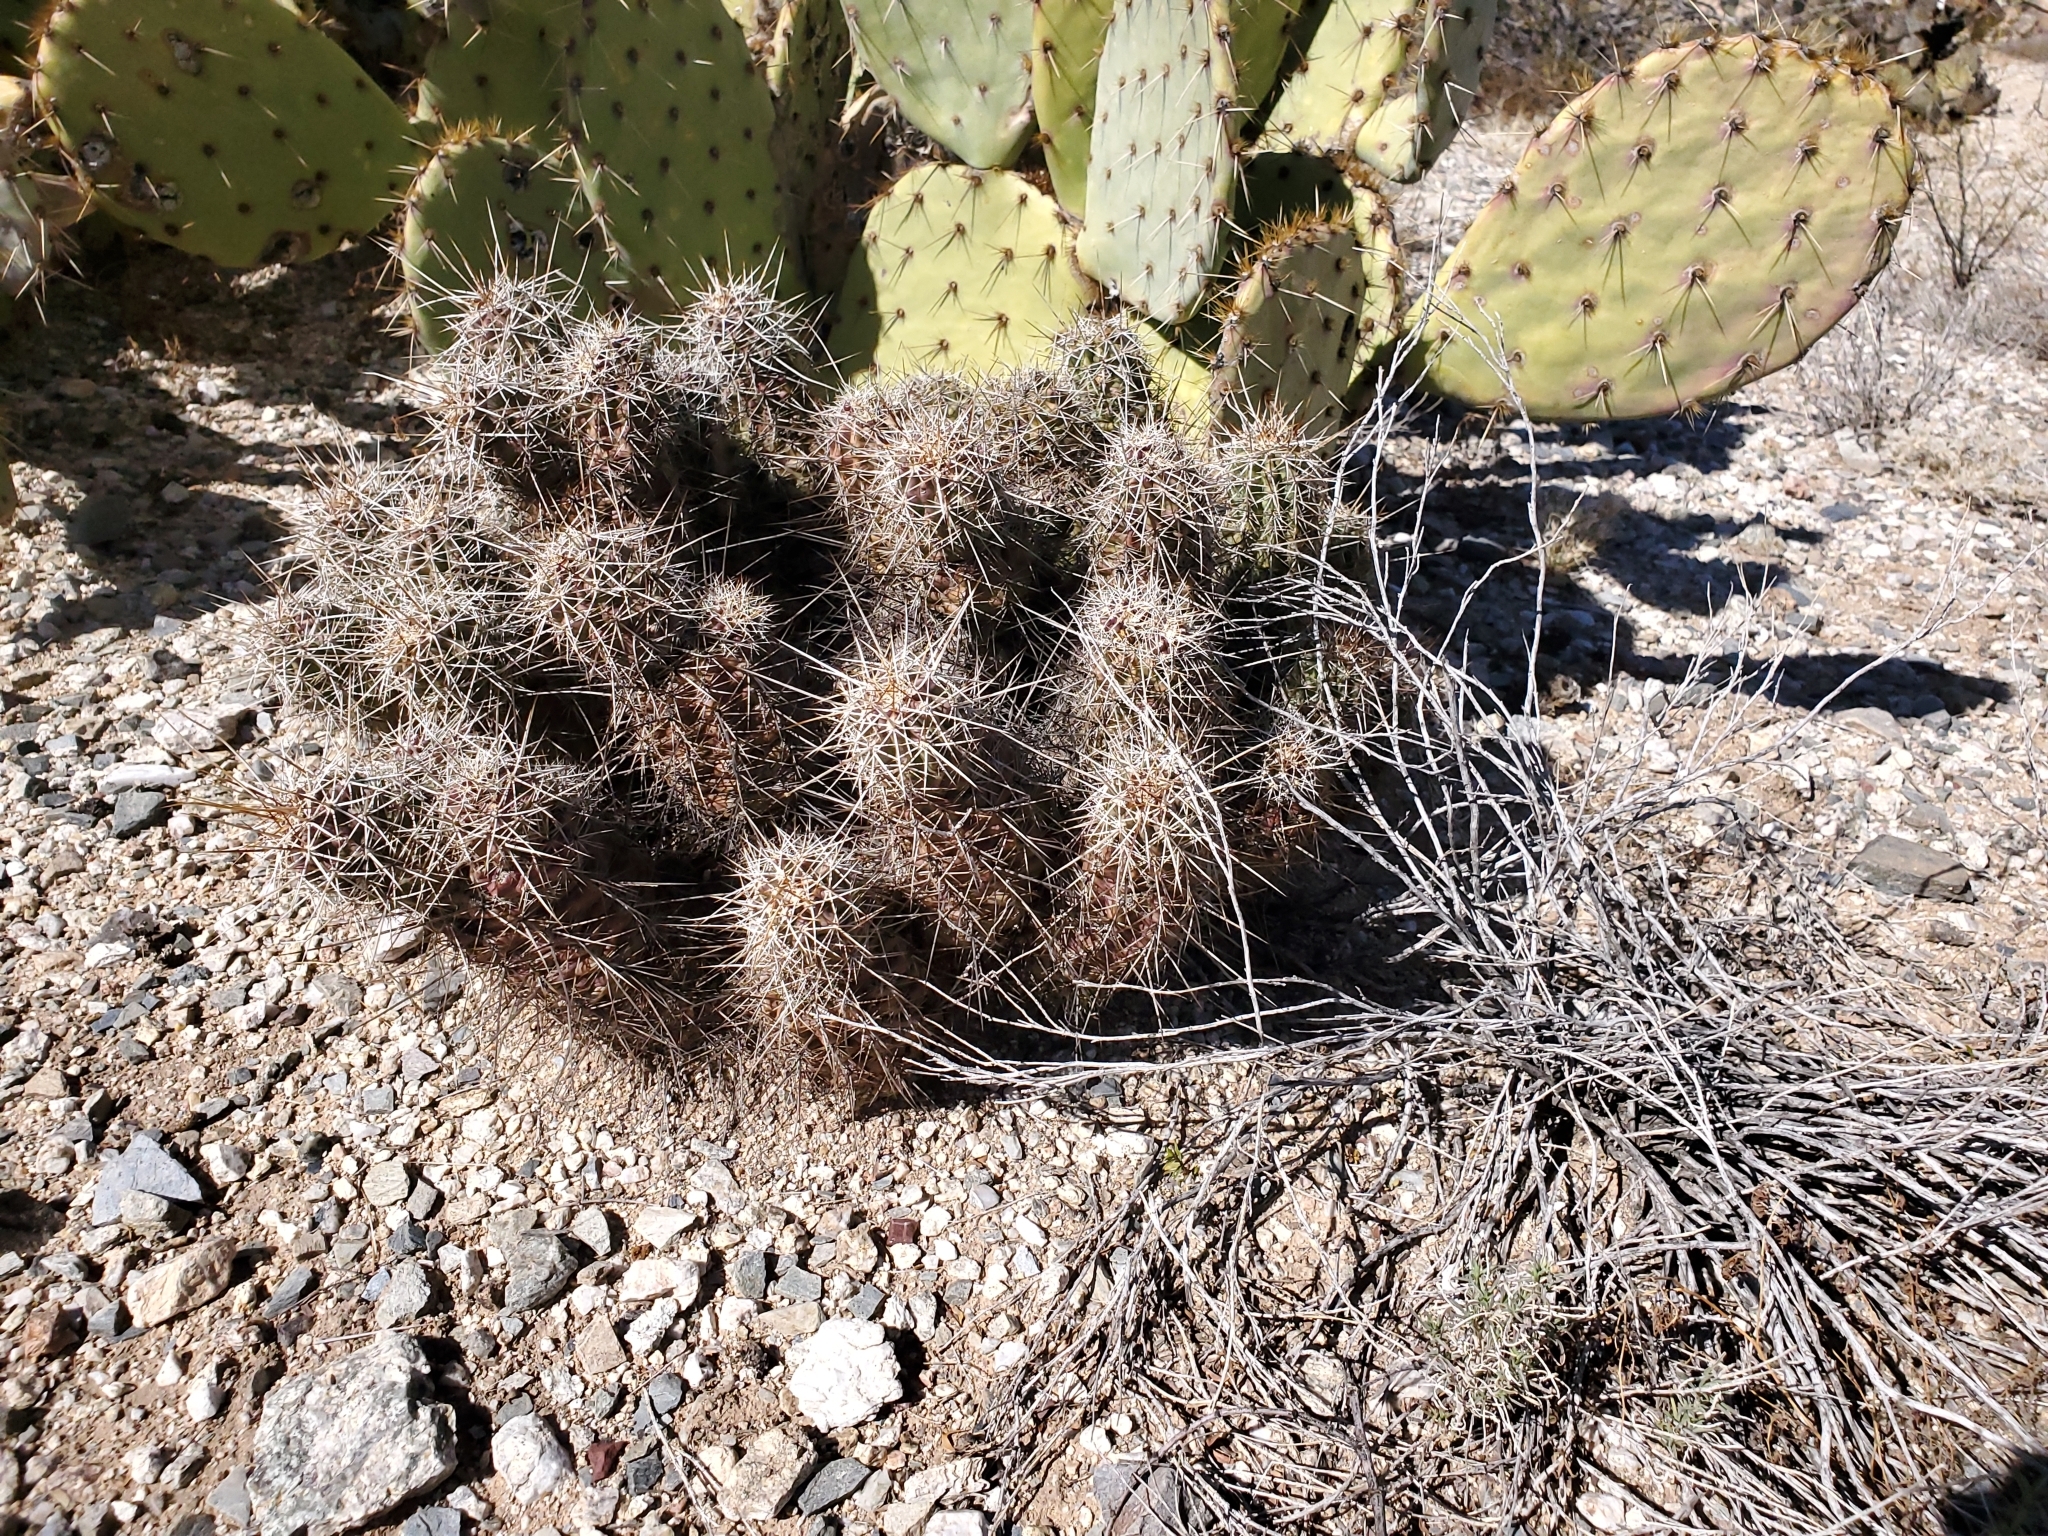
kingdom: Plantae
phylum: Tracheophyta
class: Magnoliopsida
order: Caryophyllales
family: Cactaceae
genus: Echinocereus
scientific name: Echinocereus fasciculatus
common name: Bundle hedgehog
